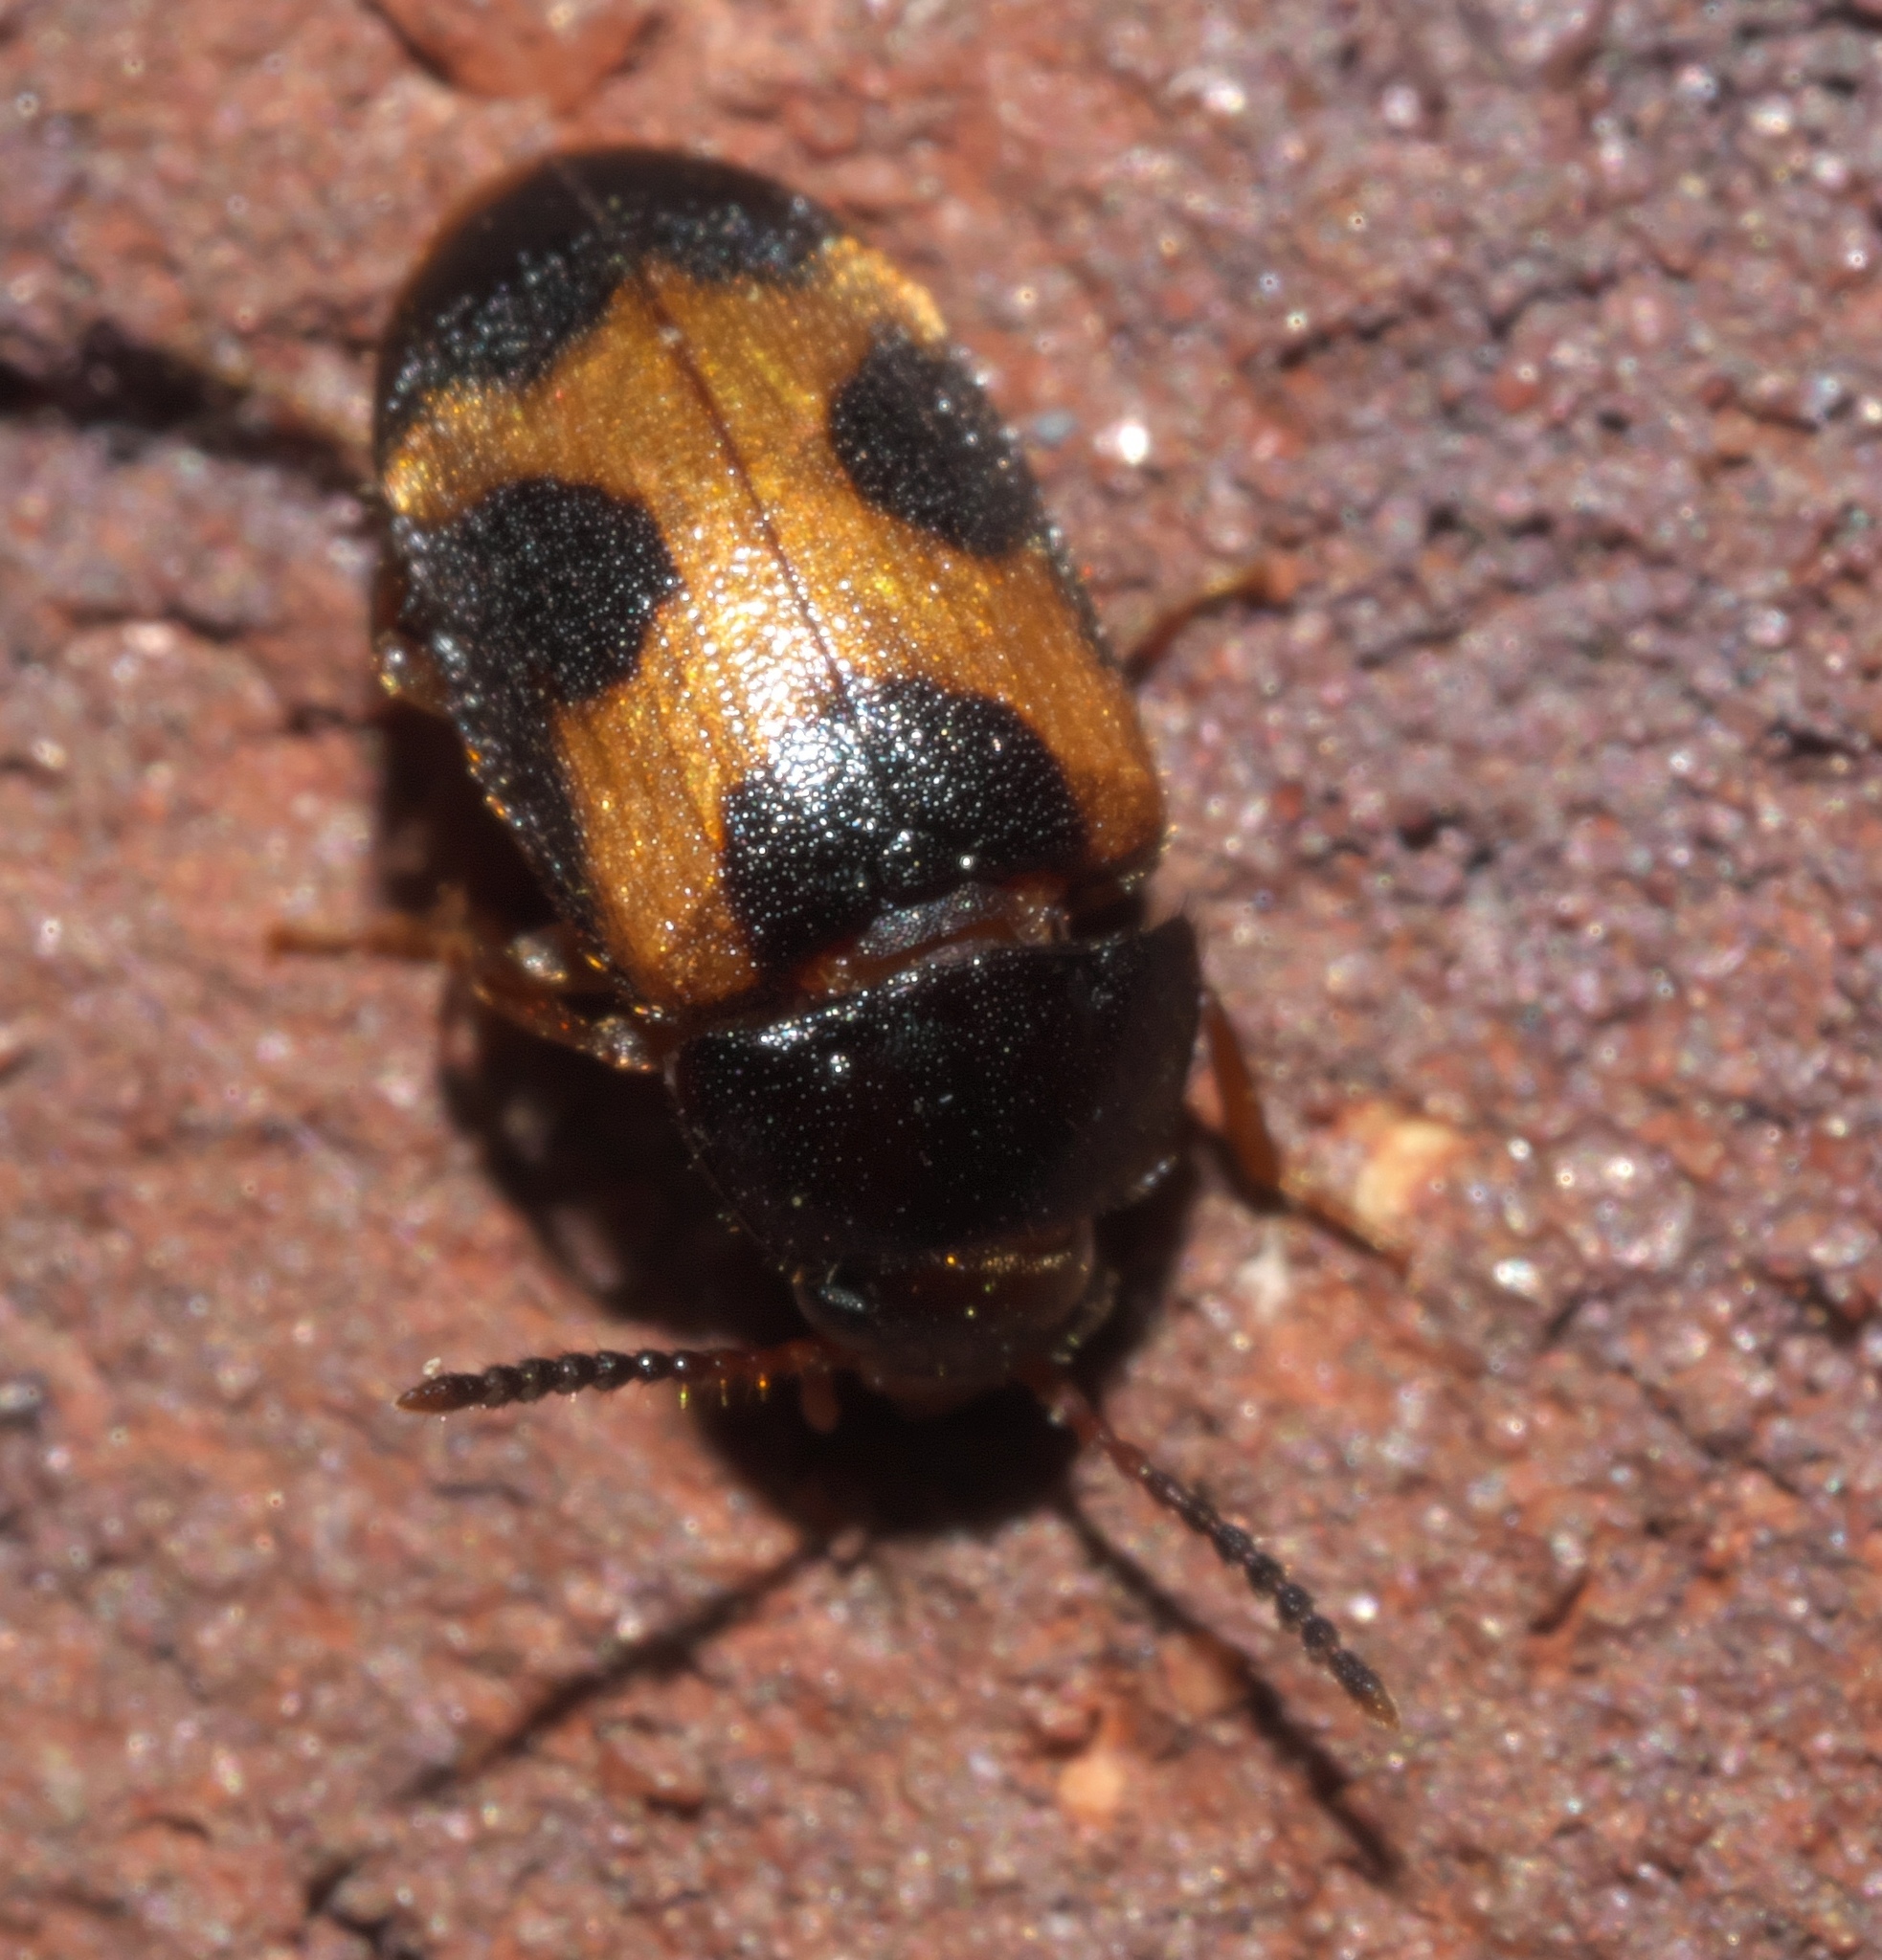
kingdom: Animalia
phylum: Arthropoda
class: Insecta
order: Coleoptera
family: Mycetophagidae
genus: Mycetophagus
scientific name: Mycetophagus punctatus
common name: Hairy fungus beetle
